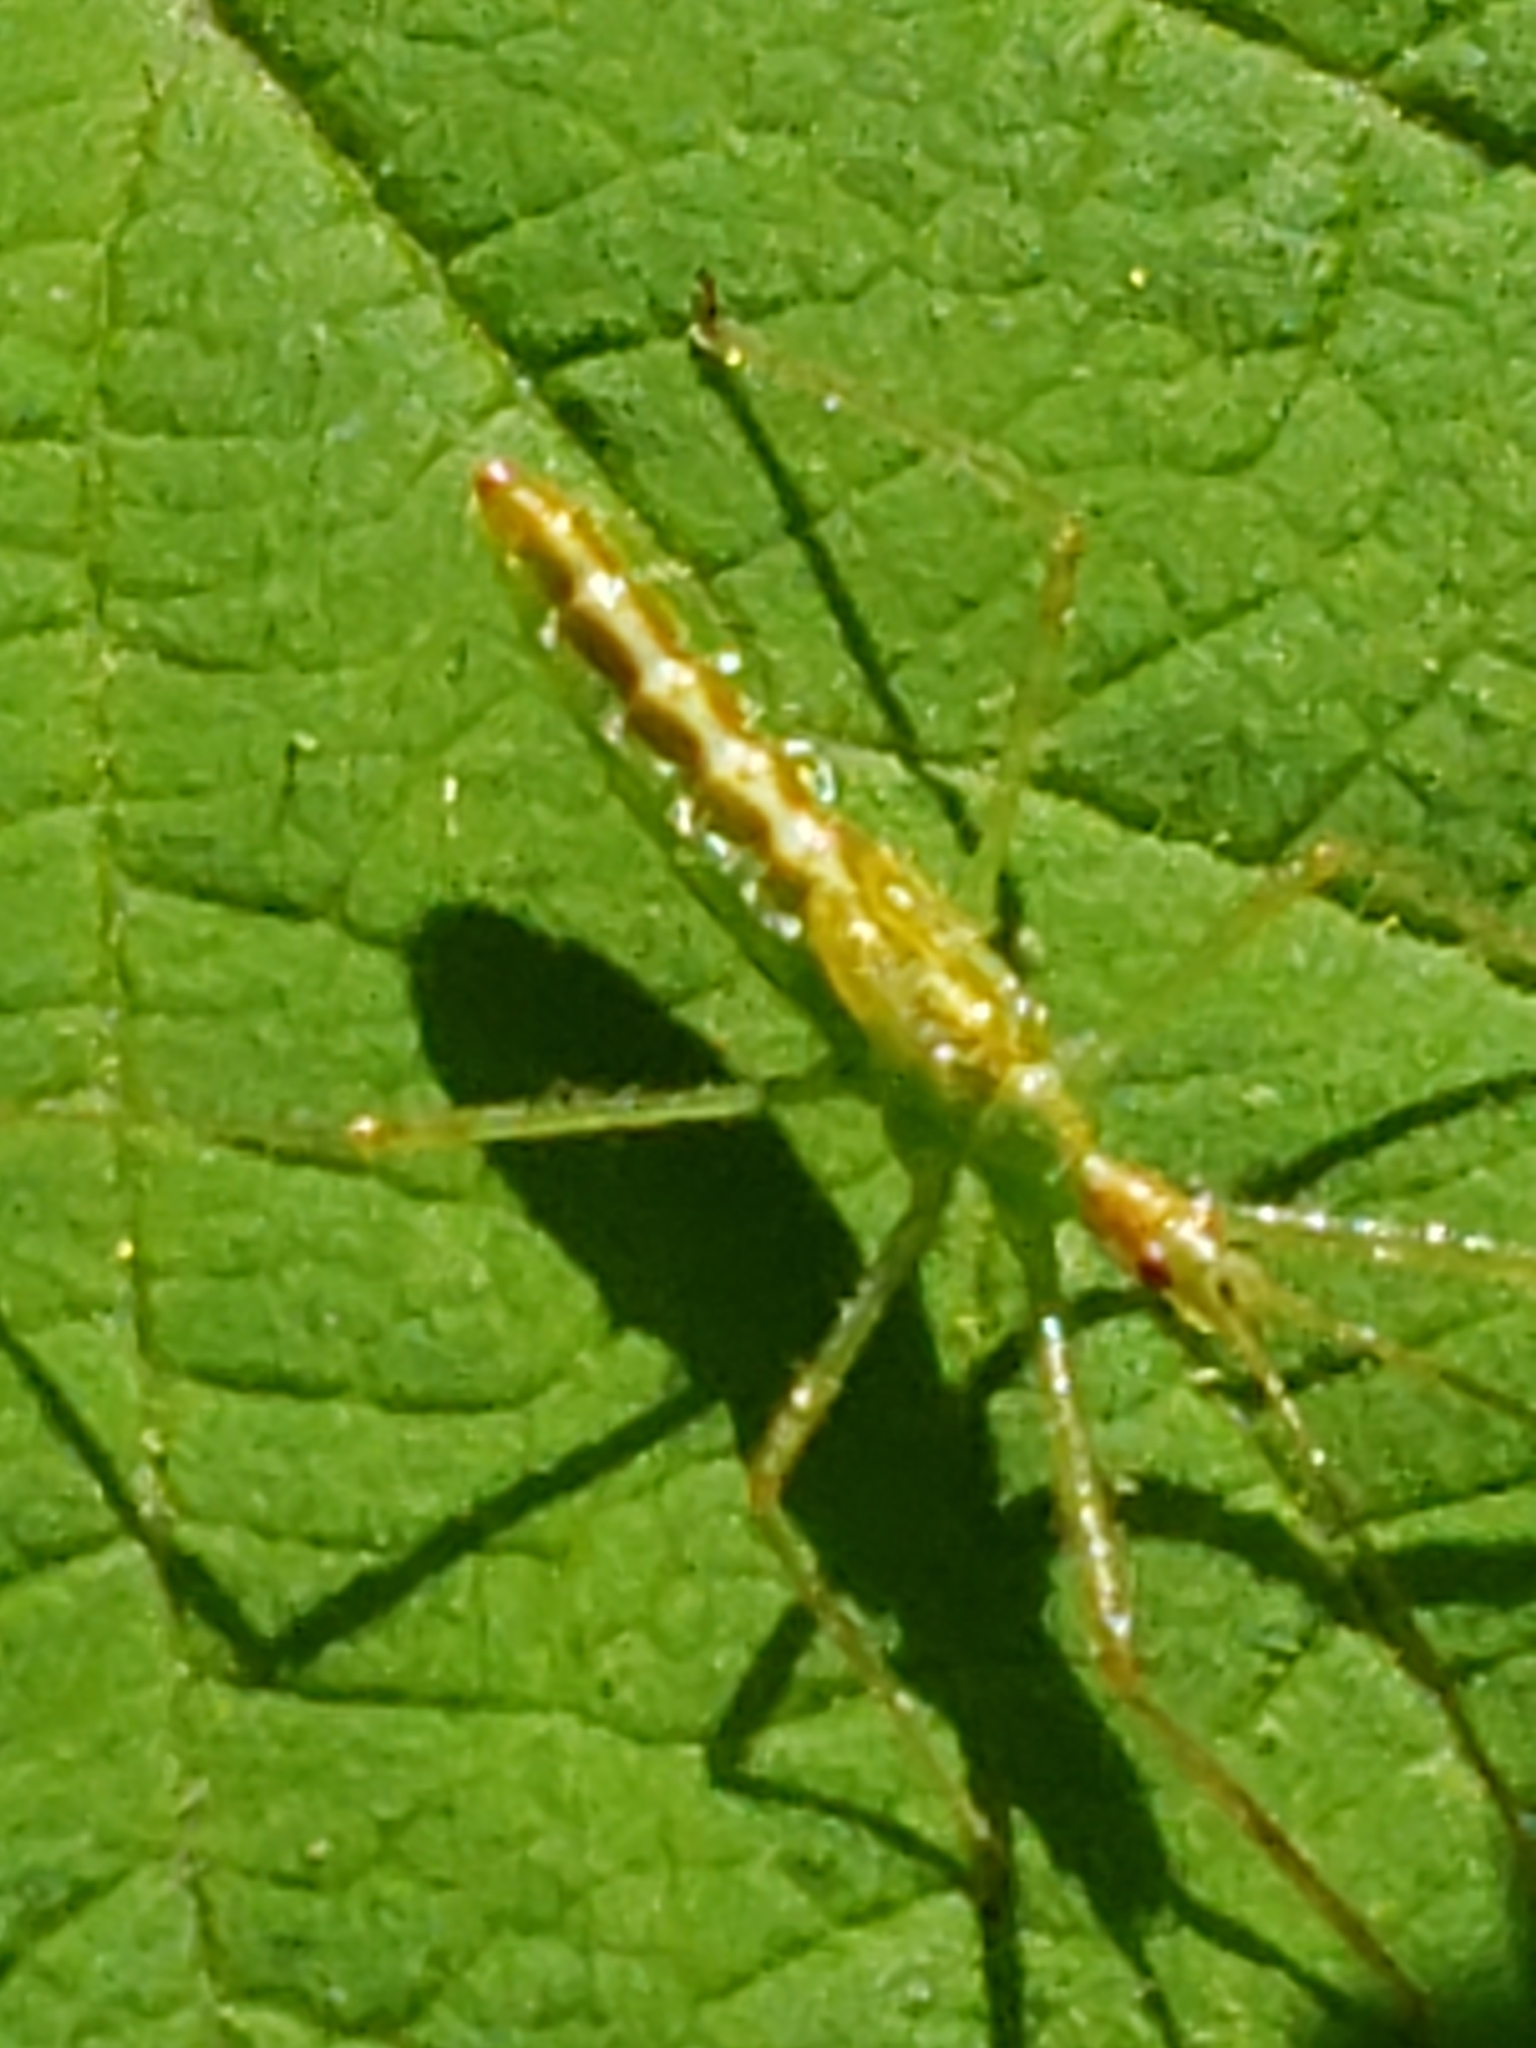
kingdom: Animalia
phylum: Arthropoda
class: Insecta
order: Hemiptera
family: Reduviidae
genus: Zelus
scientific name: Zelus luridus
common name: Pale green assassin bug
